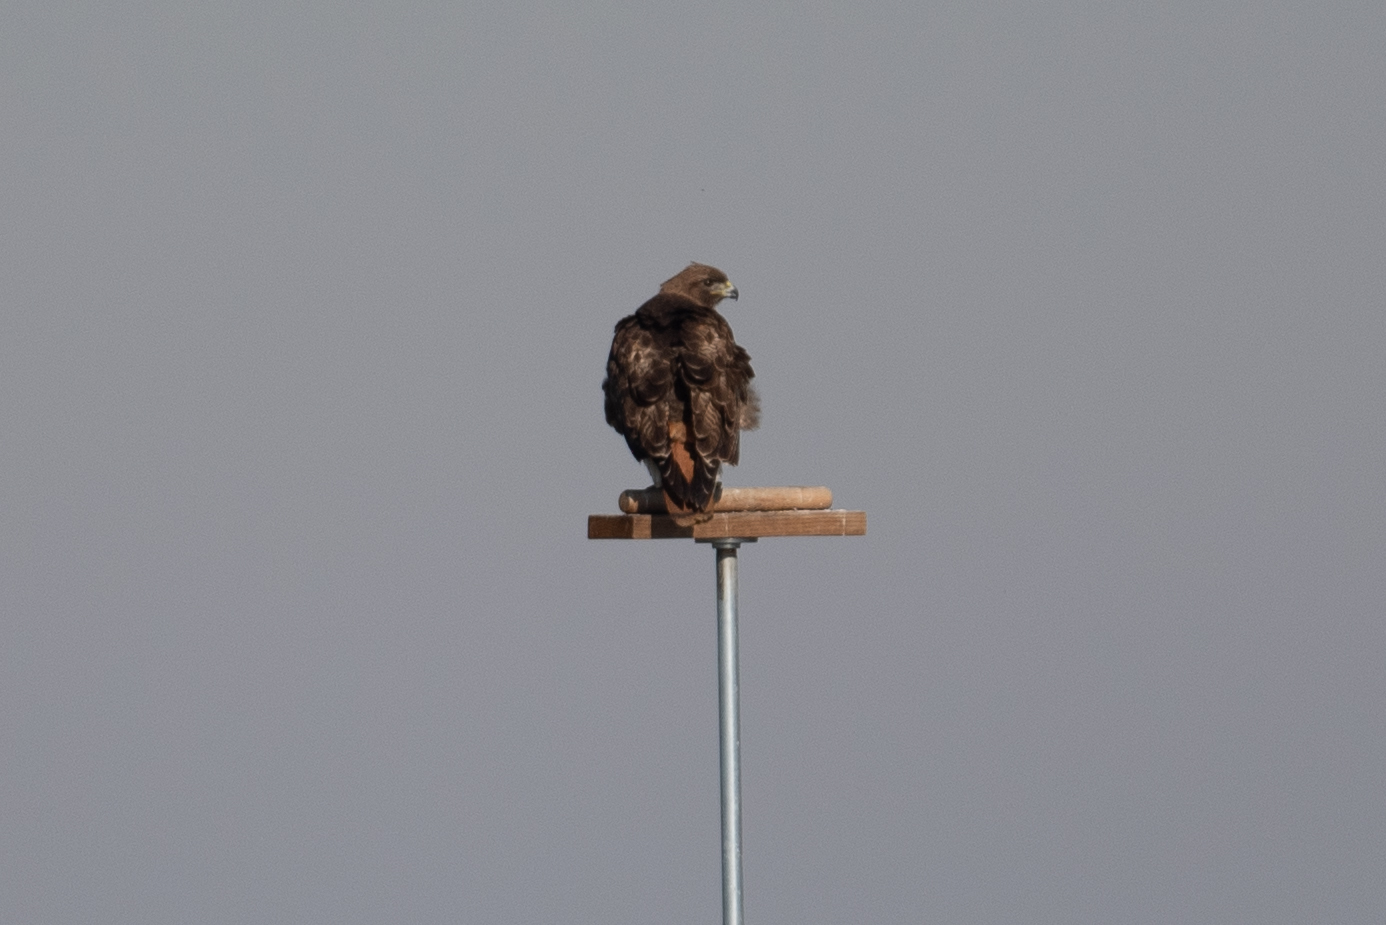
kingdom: Animalia
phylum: Chordata
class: Aves
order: Accipitriformes
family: Accipitridae
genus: Buteo
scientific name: Buteo jamaicensis
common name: Red-tailed hawk
